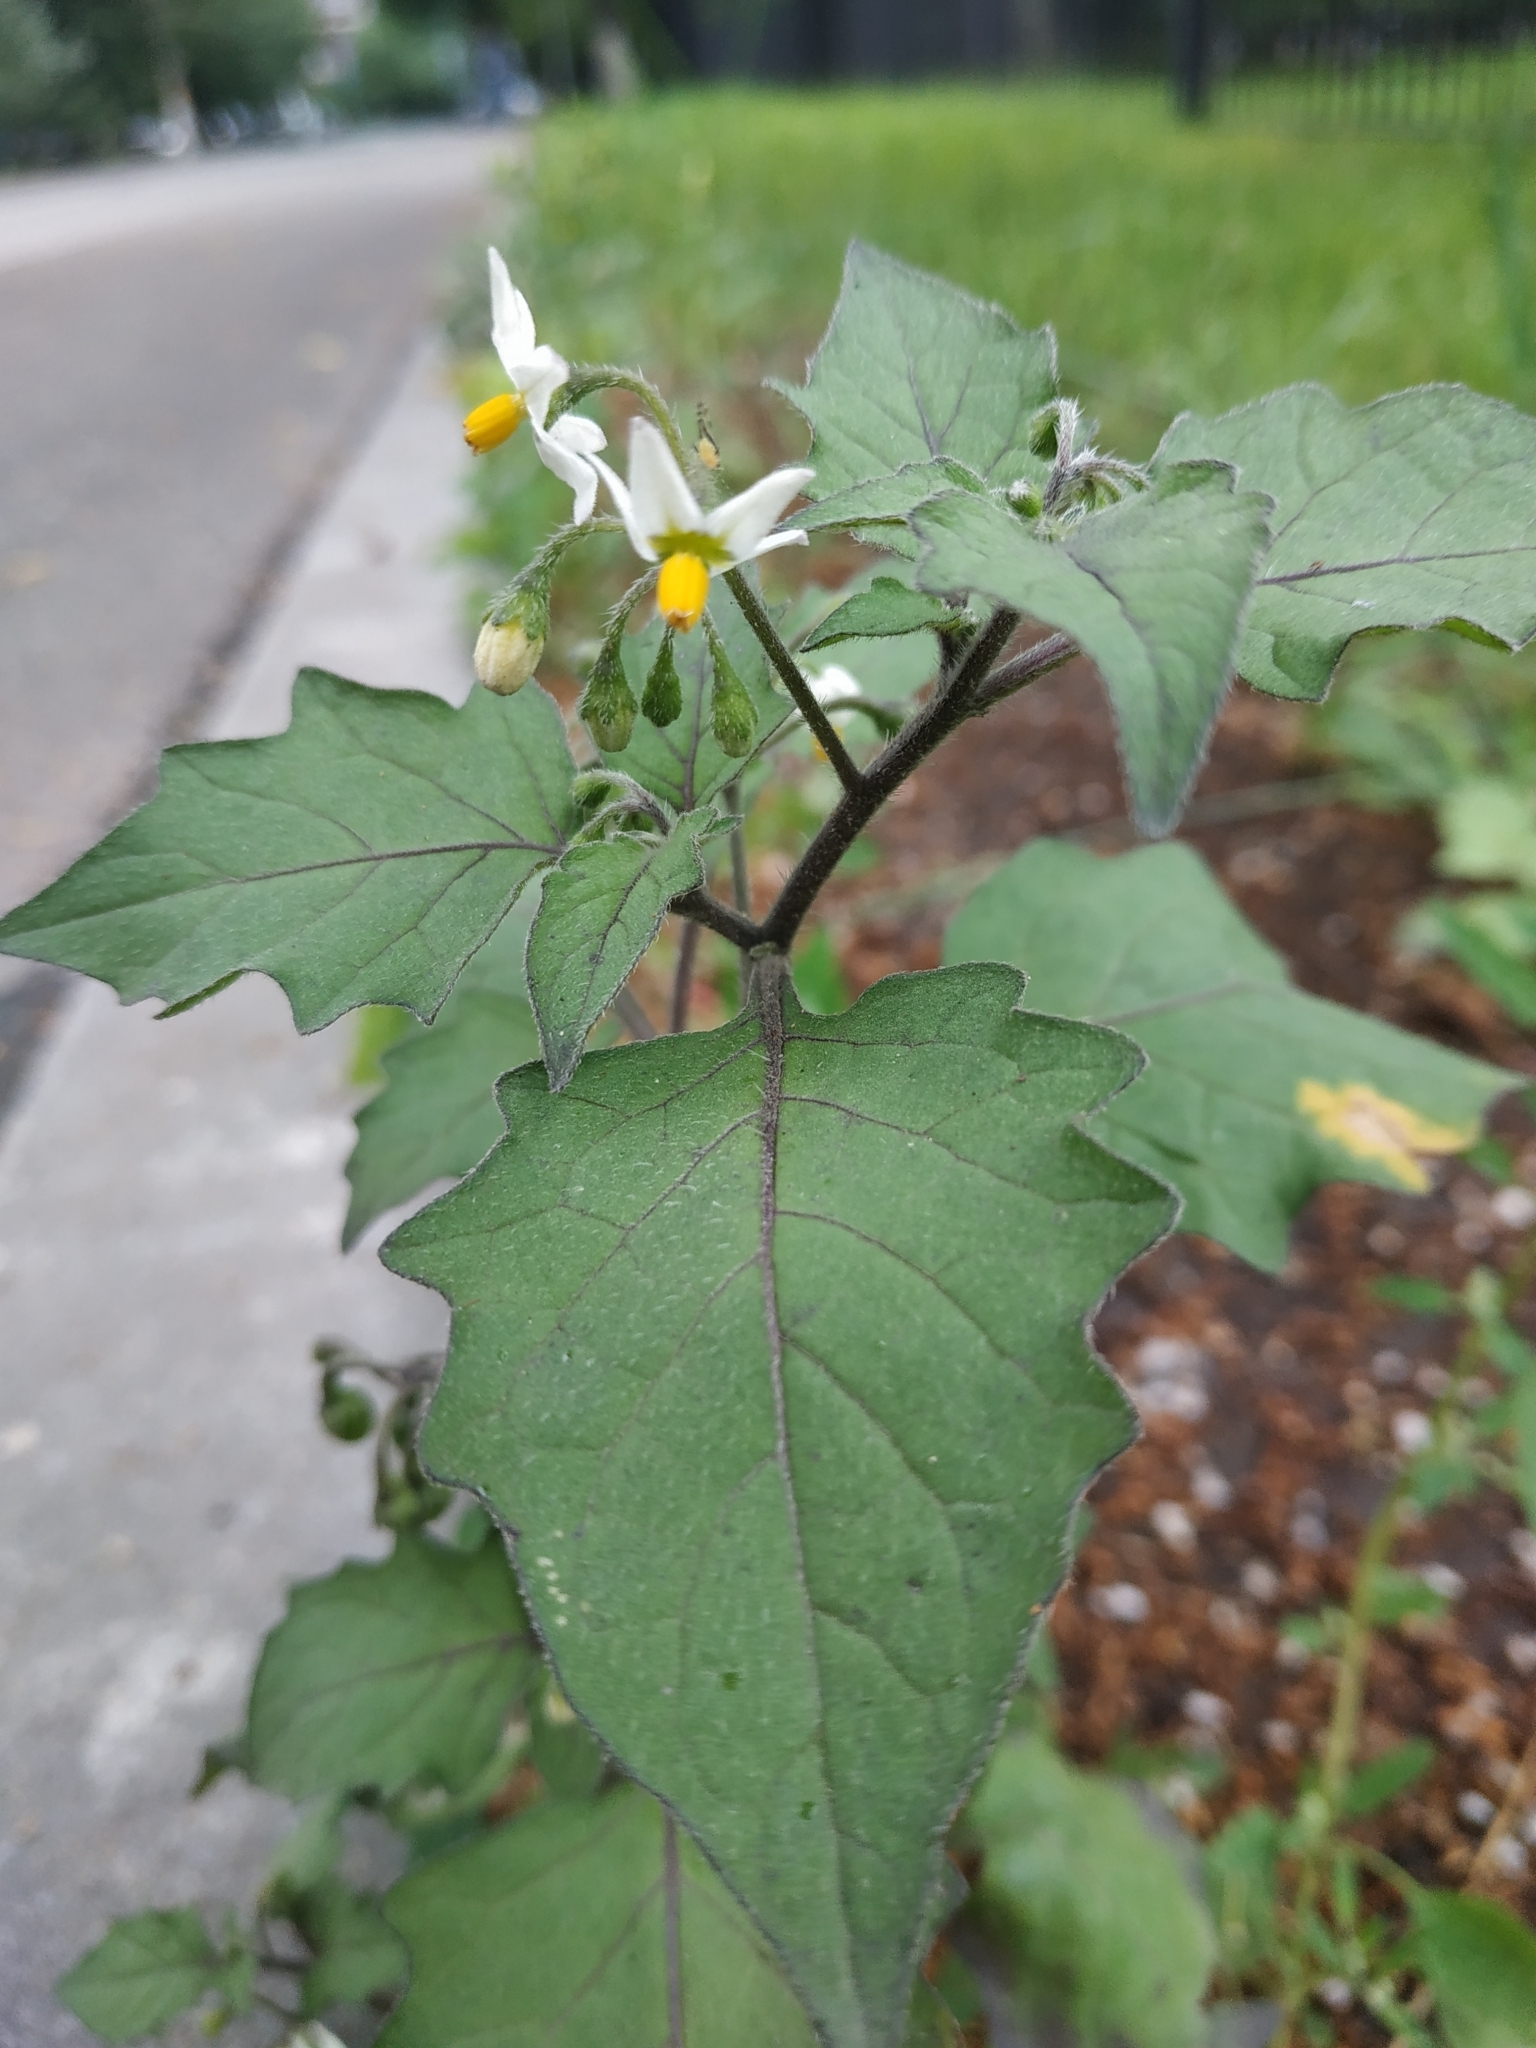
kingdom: Plantae
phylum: Tracheophyta
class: Magnoliopsida
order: Solanales
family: Solanaceae
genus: Solanum
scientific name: Solanum nigrum
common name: Black nightshade
